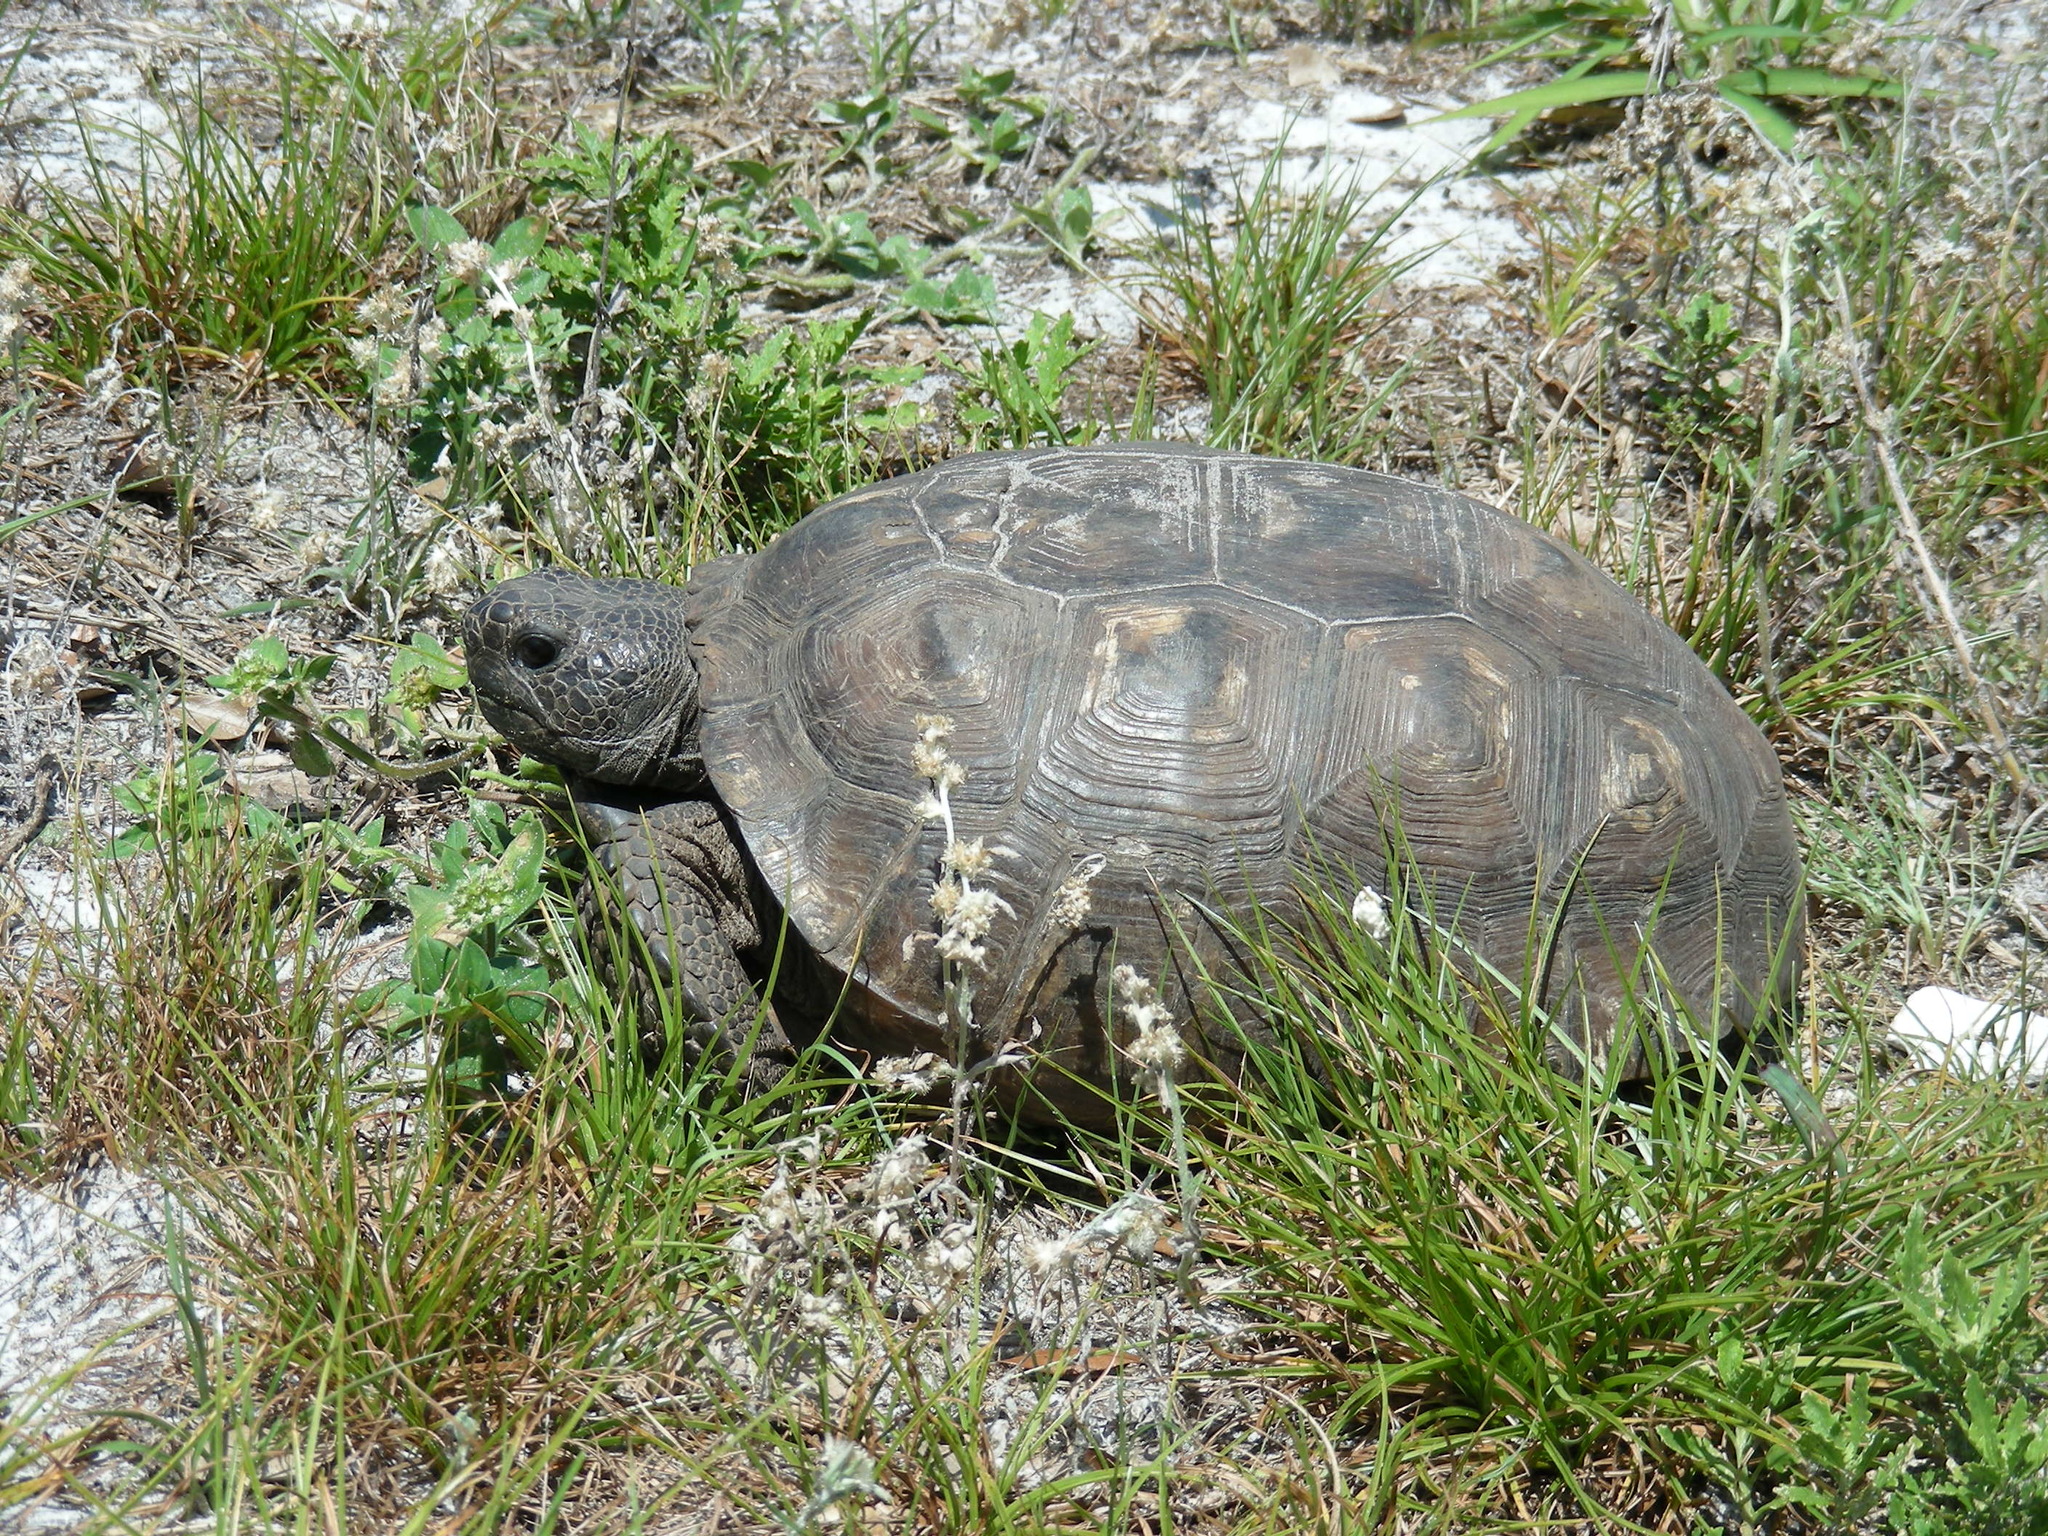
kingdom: Animalia
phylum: Chordata
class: Testudines
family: Testudinidae
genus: Gopherus
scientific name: Gopherus polyphemus
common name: Florida gopher tortoise
